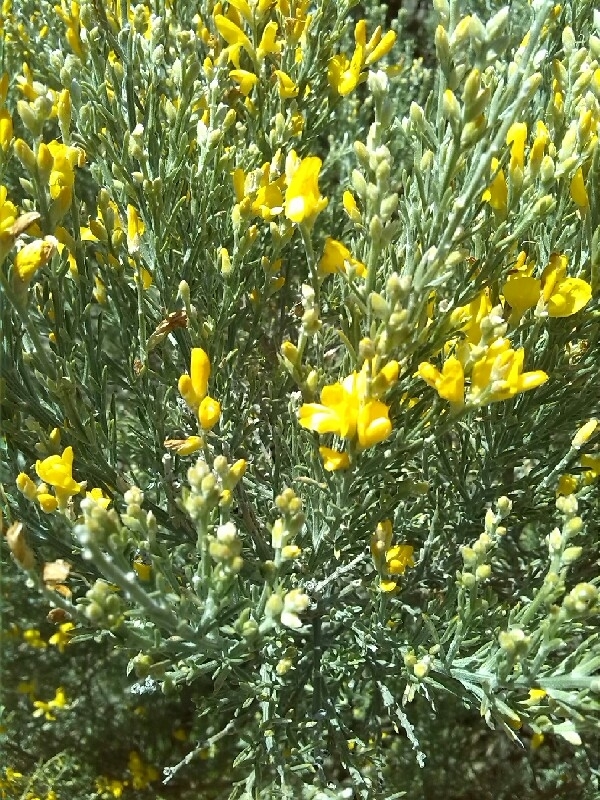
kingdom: Plantae
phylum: Tracheophyta
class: Magnoliopsida
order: Fabales
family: Fabaceae
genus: Genista
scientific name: Genista microphylla
